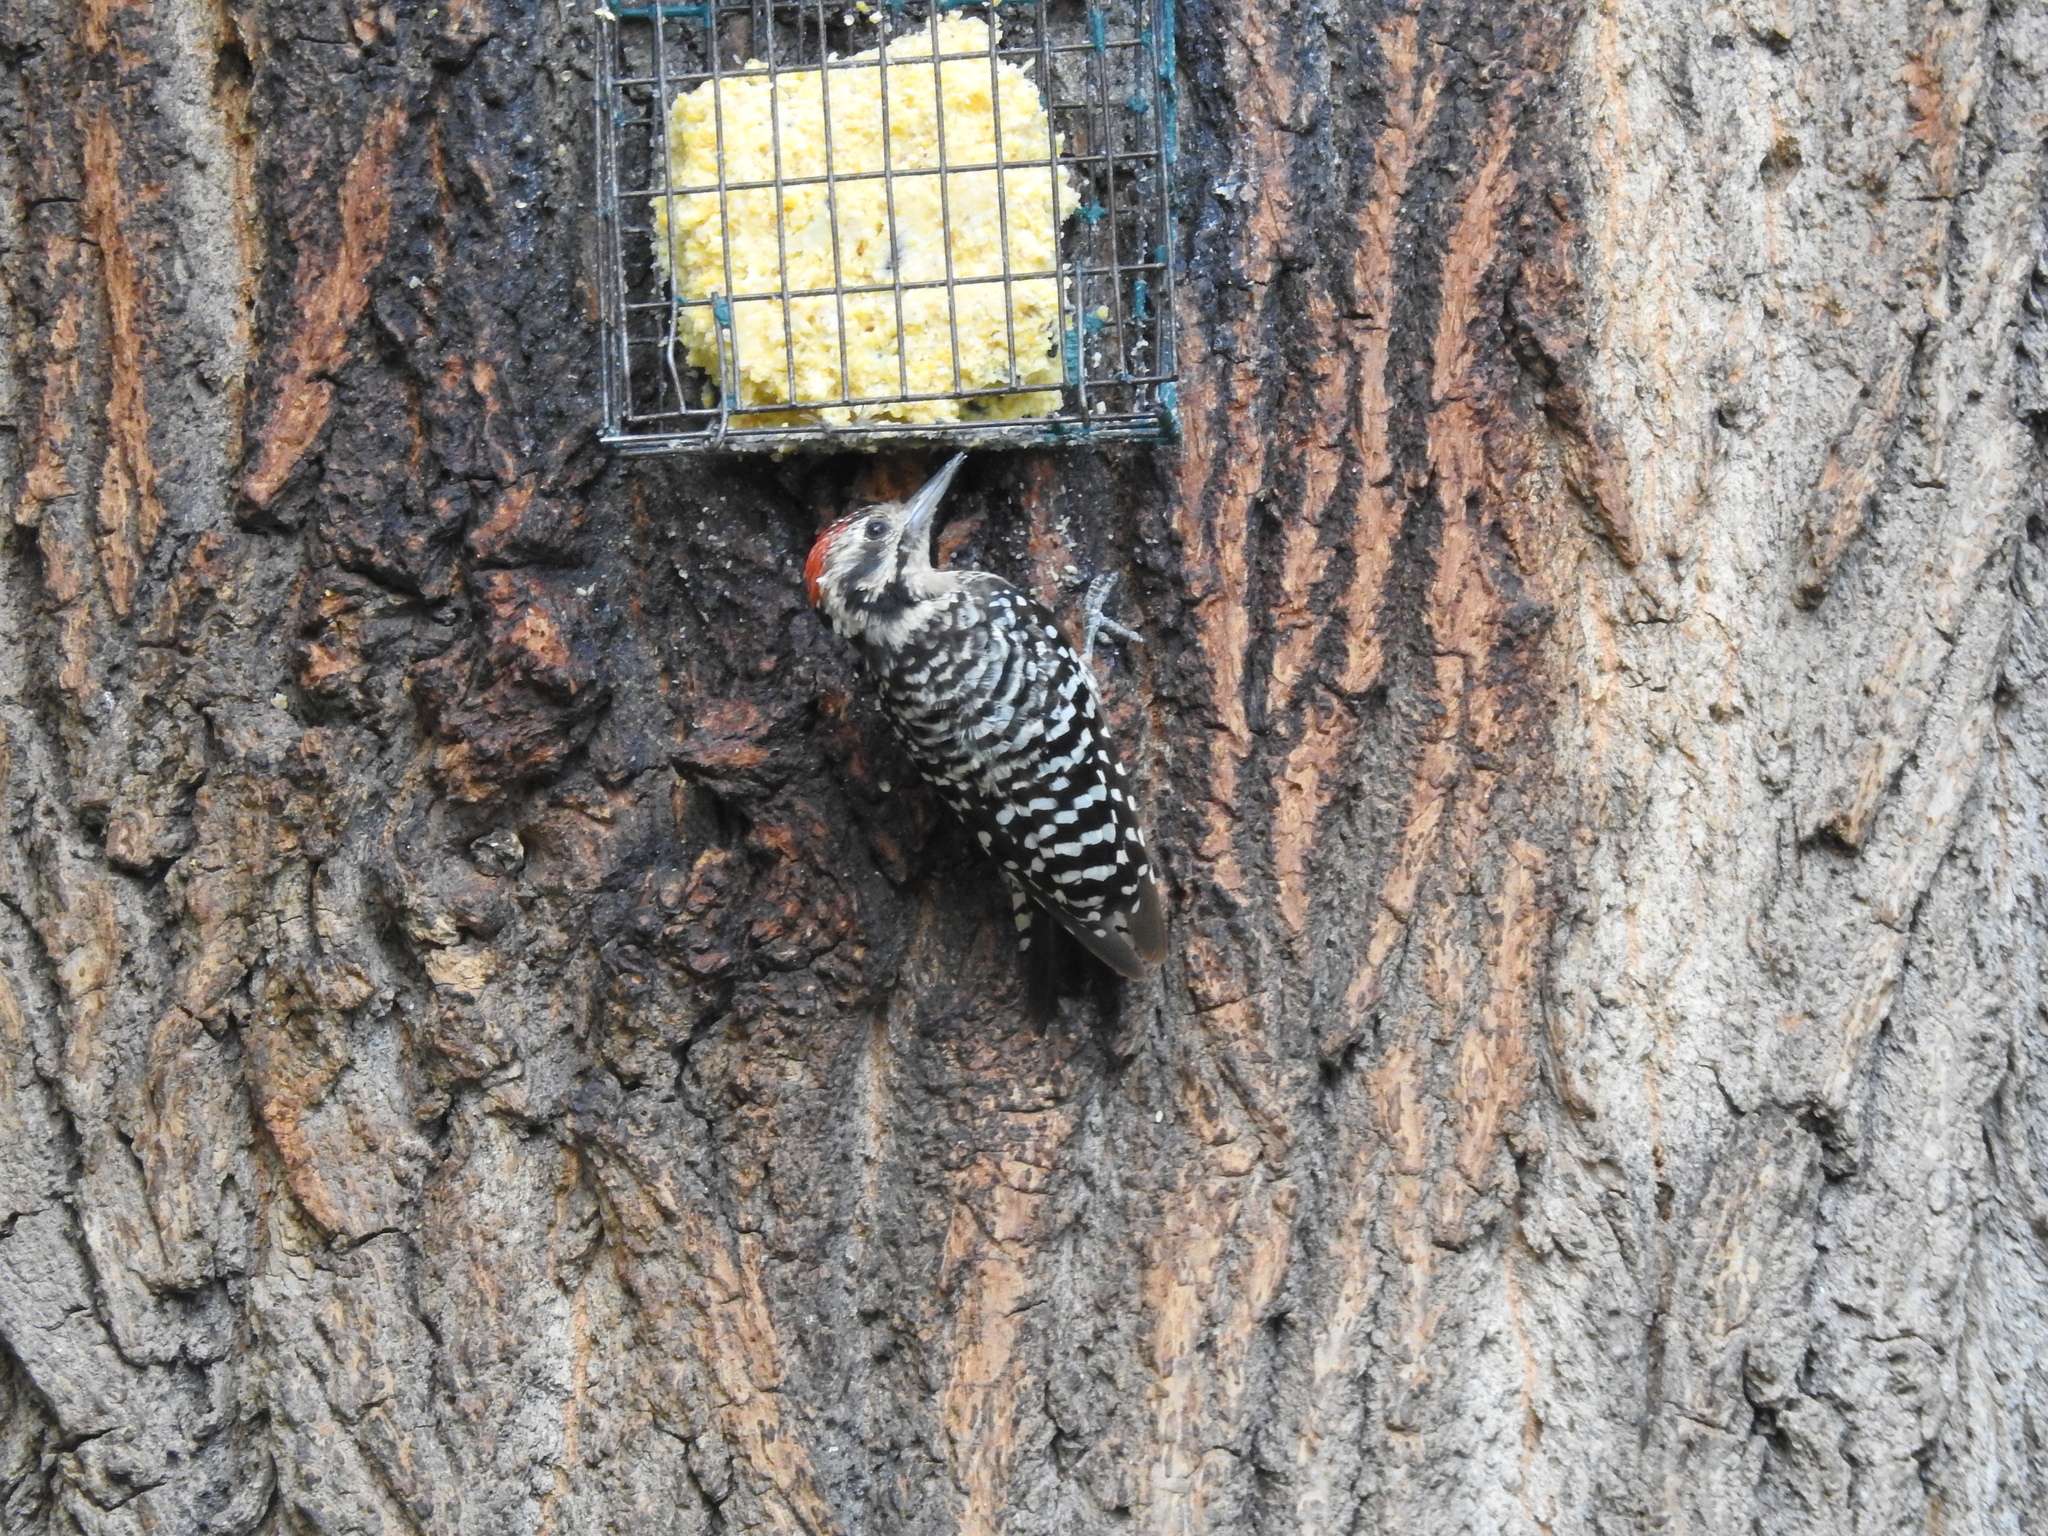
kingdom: Animalia
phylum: Chordata
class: Aves
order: Piciformes
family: Picidae
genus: Dryobates
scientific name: Dryobates scalaris
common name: Ladder-backed woodpecker
